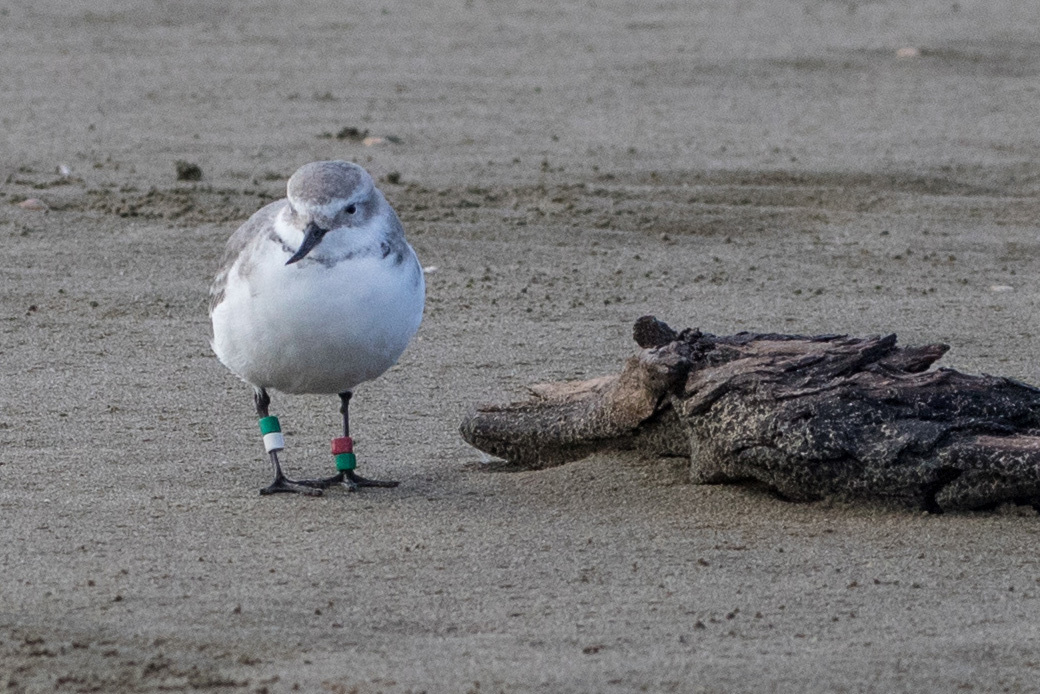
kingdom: Animalia
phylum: Chordata
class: Aves
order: Charadriiformes
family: Charadriidae
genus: Anarhynchus
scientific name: Anarhynchus frontalis
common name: Wrybill
